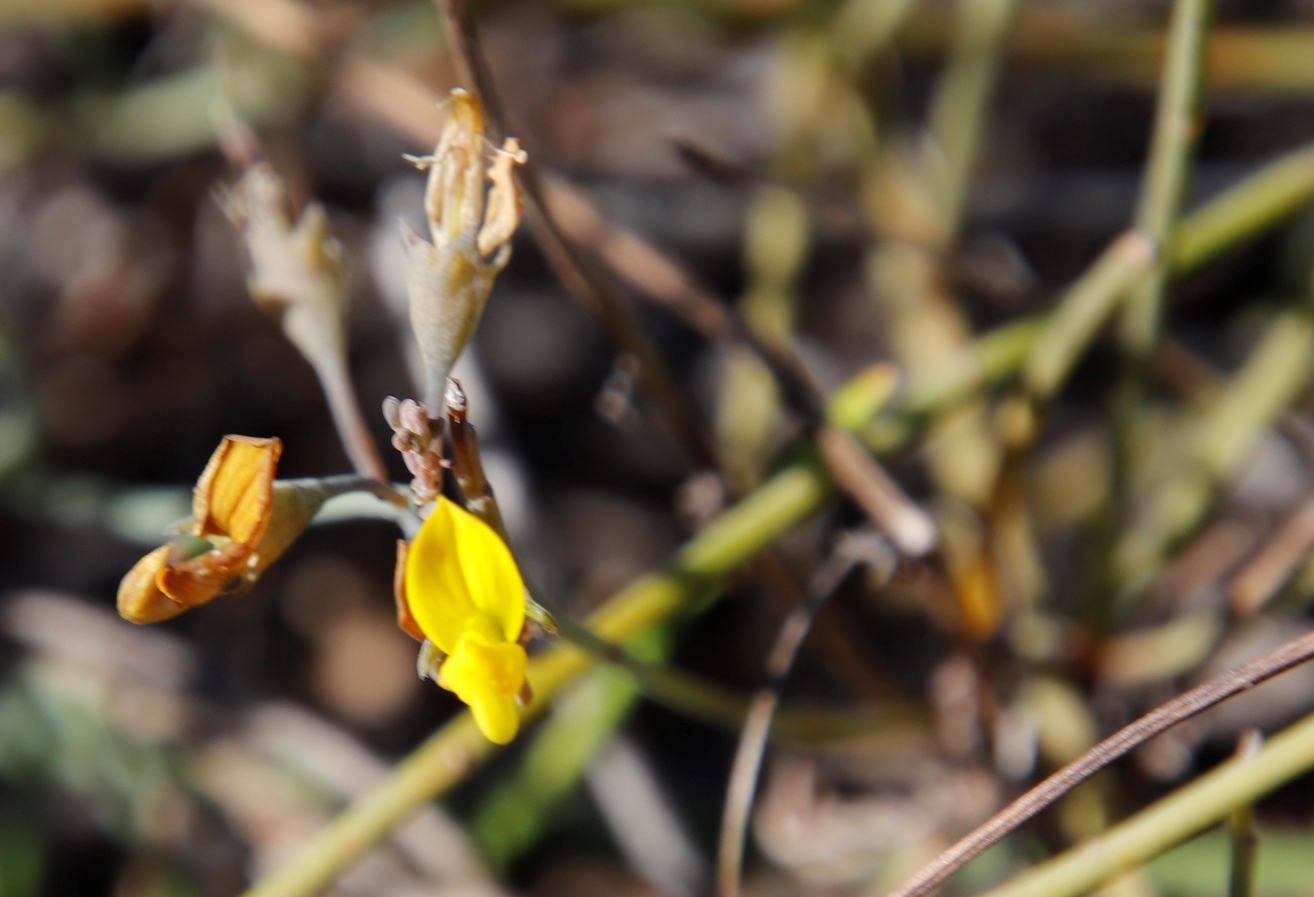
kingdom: Plantae
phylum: Tracheophyta
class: Magnoliopsida
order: Fabales
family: Fabaceae
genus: Lebeckia
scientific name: Lebeckia contaminata
